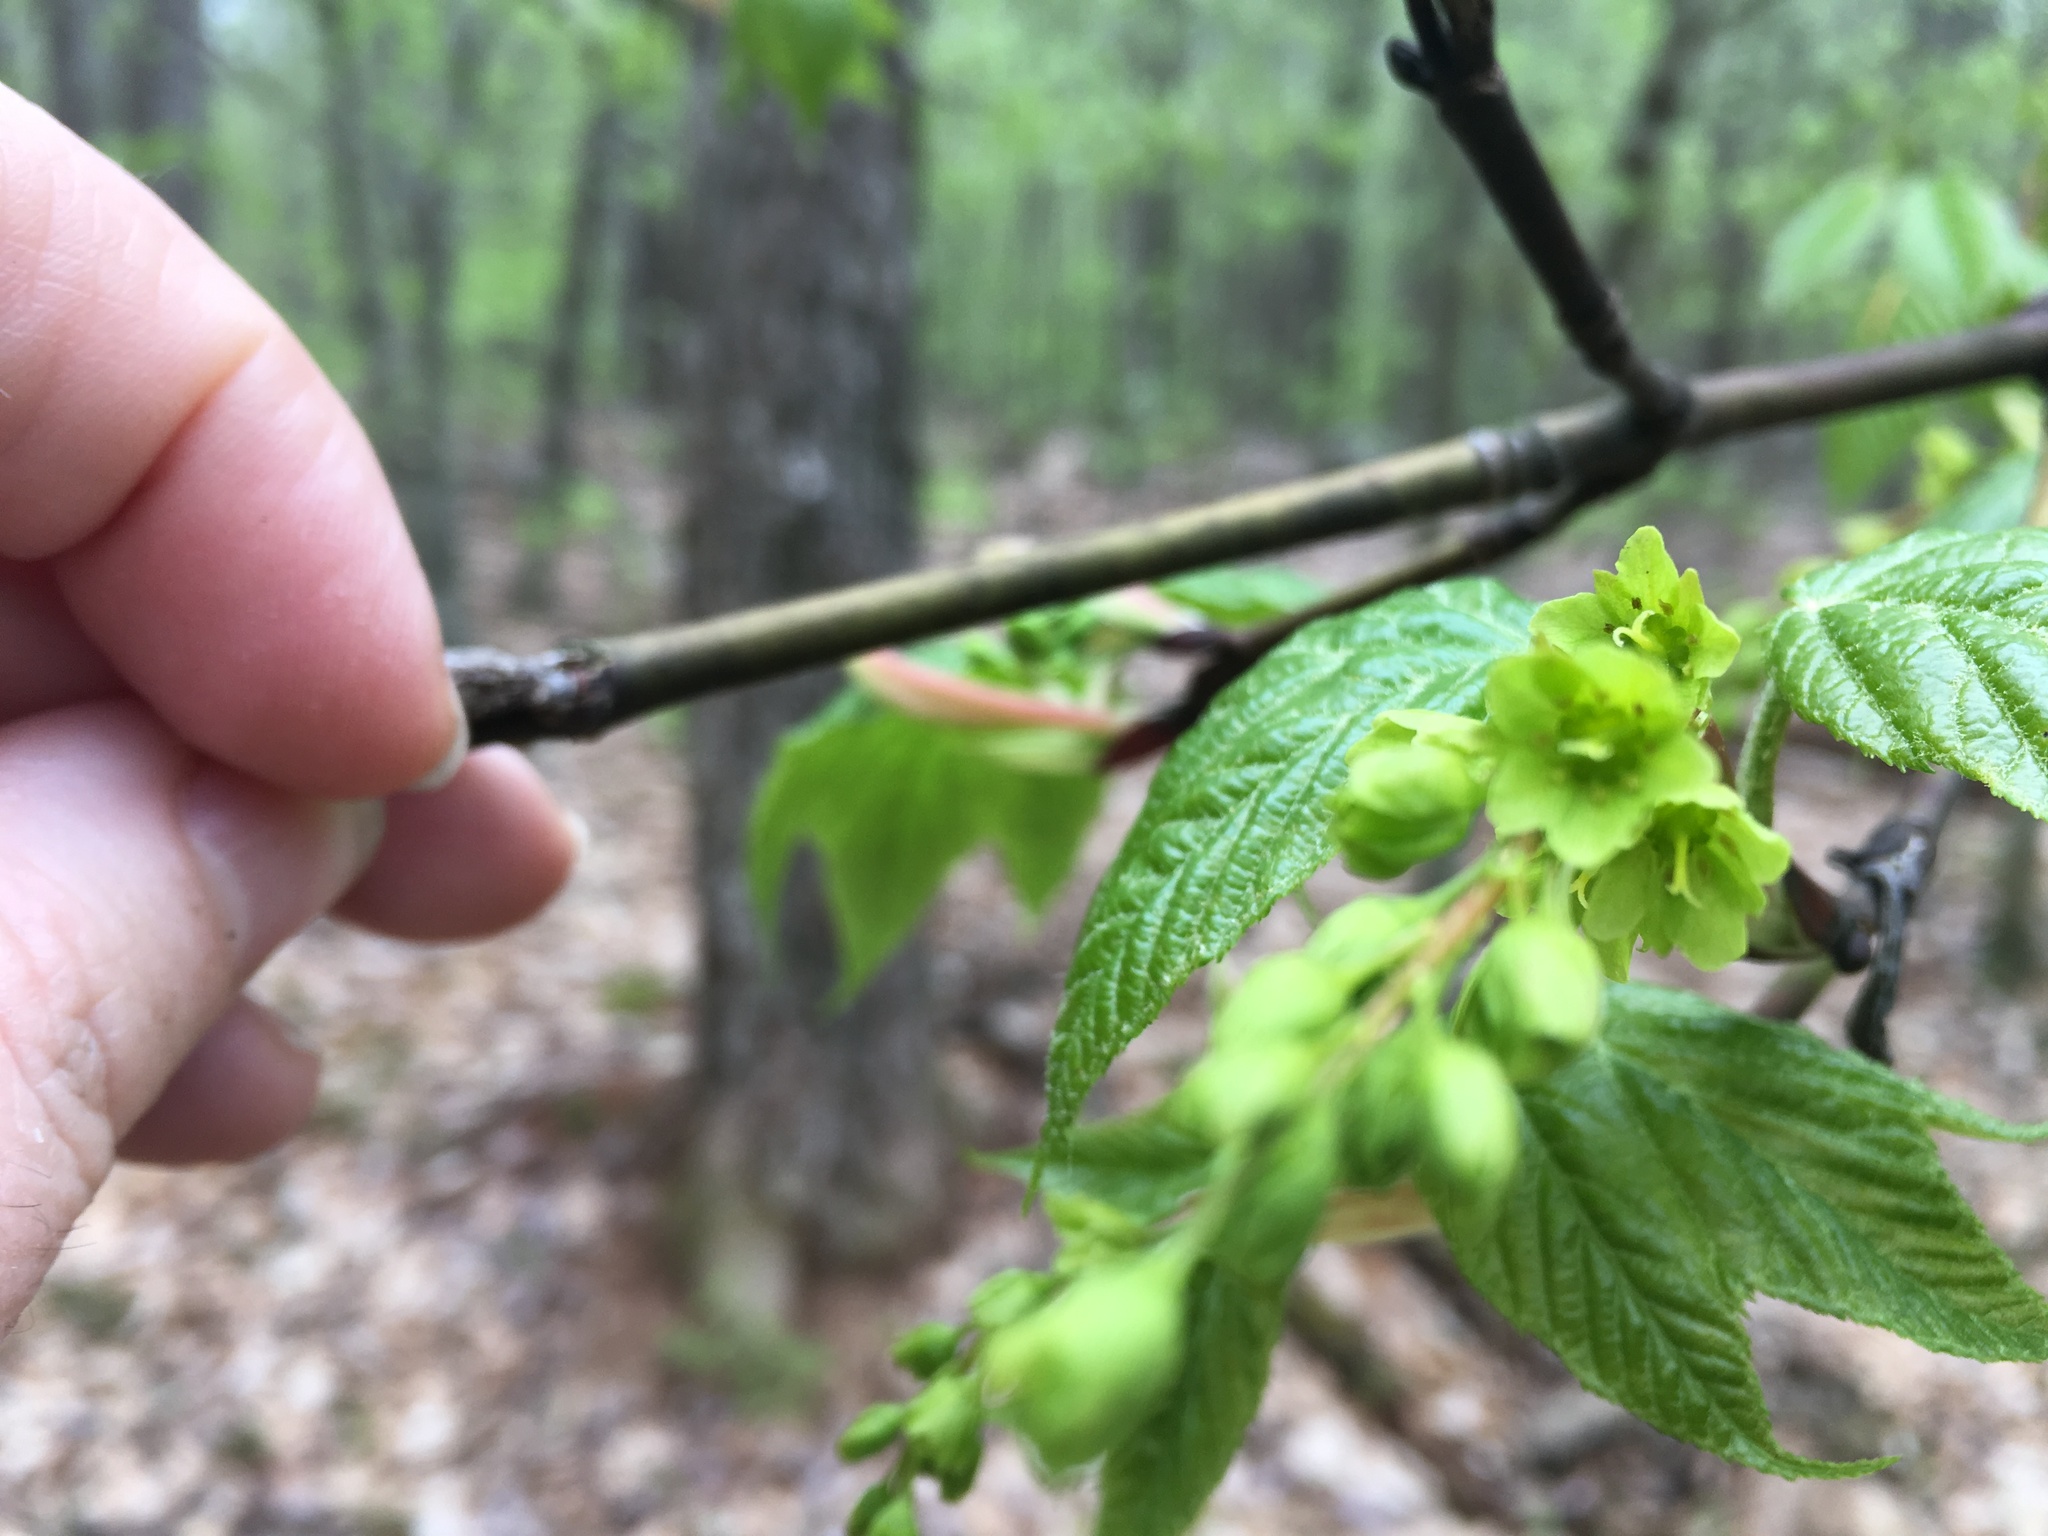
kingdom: Plantae
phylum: Tracheophyta
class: Magnoliopsida
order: Sapindales
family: Sapindaceae
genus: Acer
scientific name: Acer pensylvanicum
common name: Moosewood
